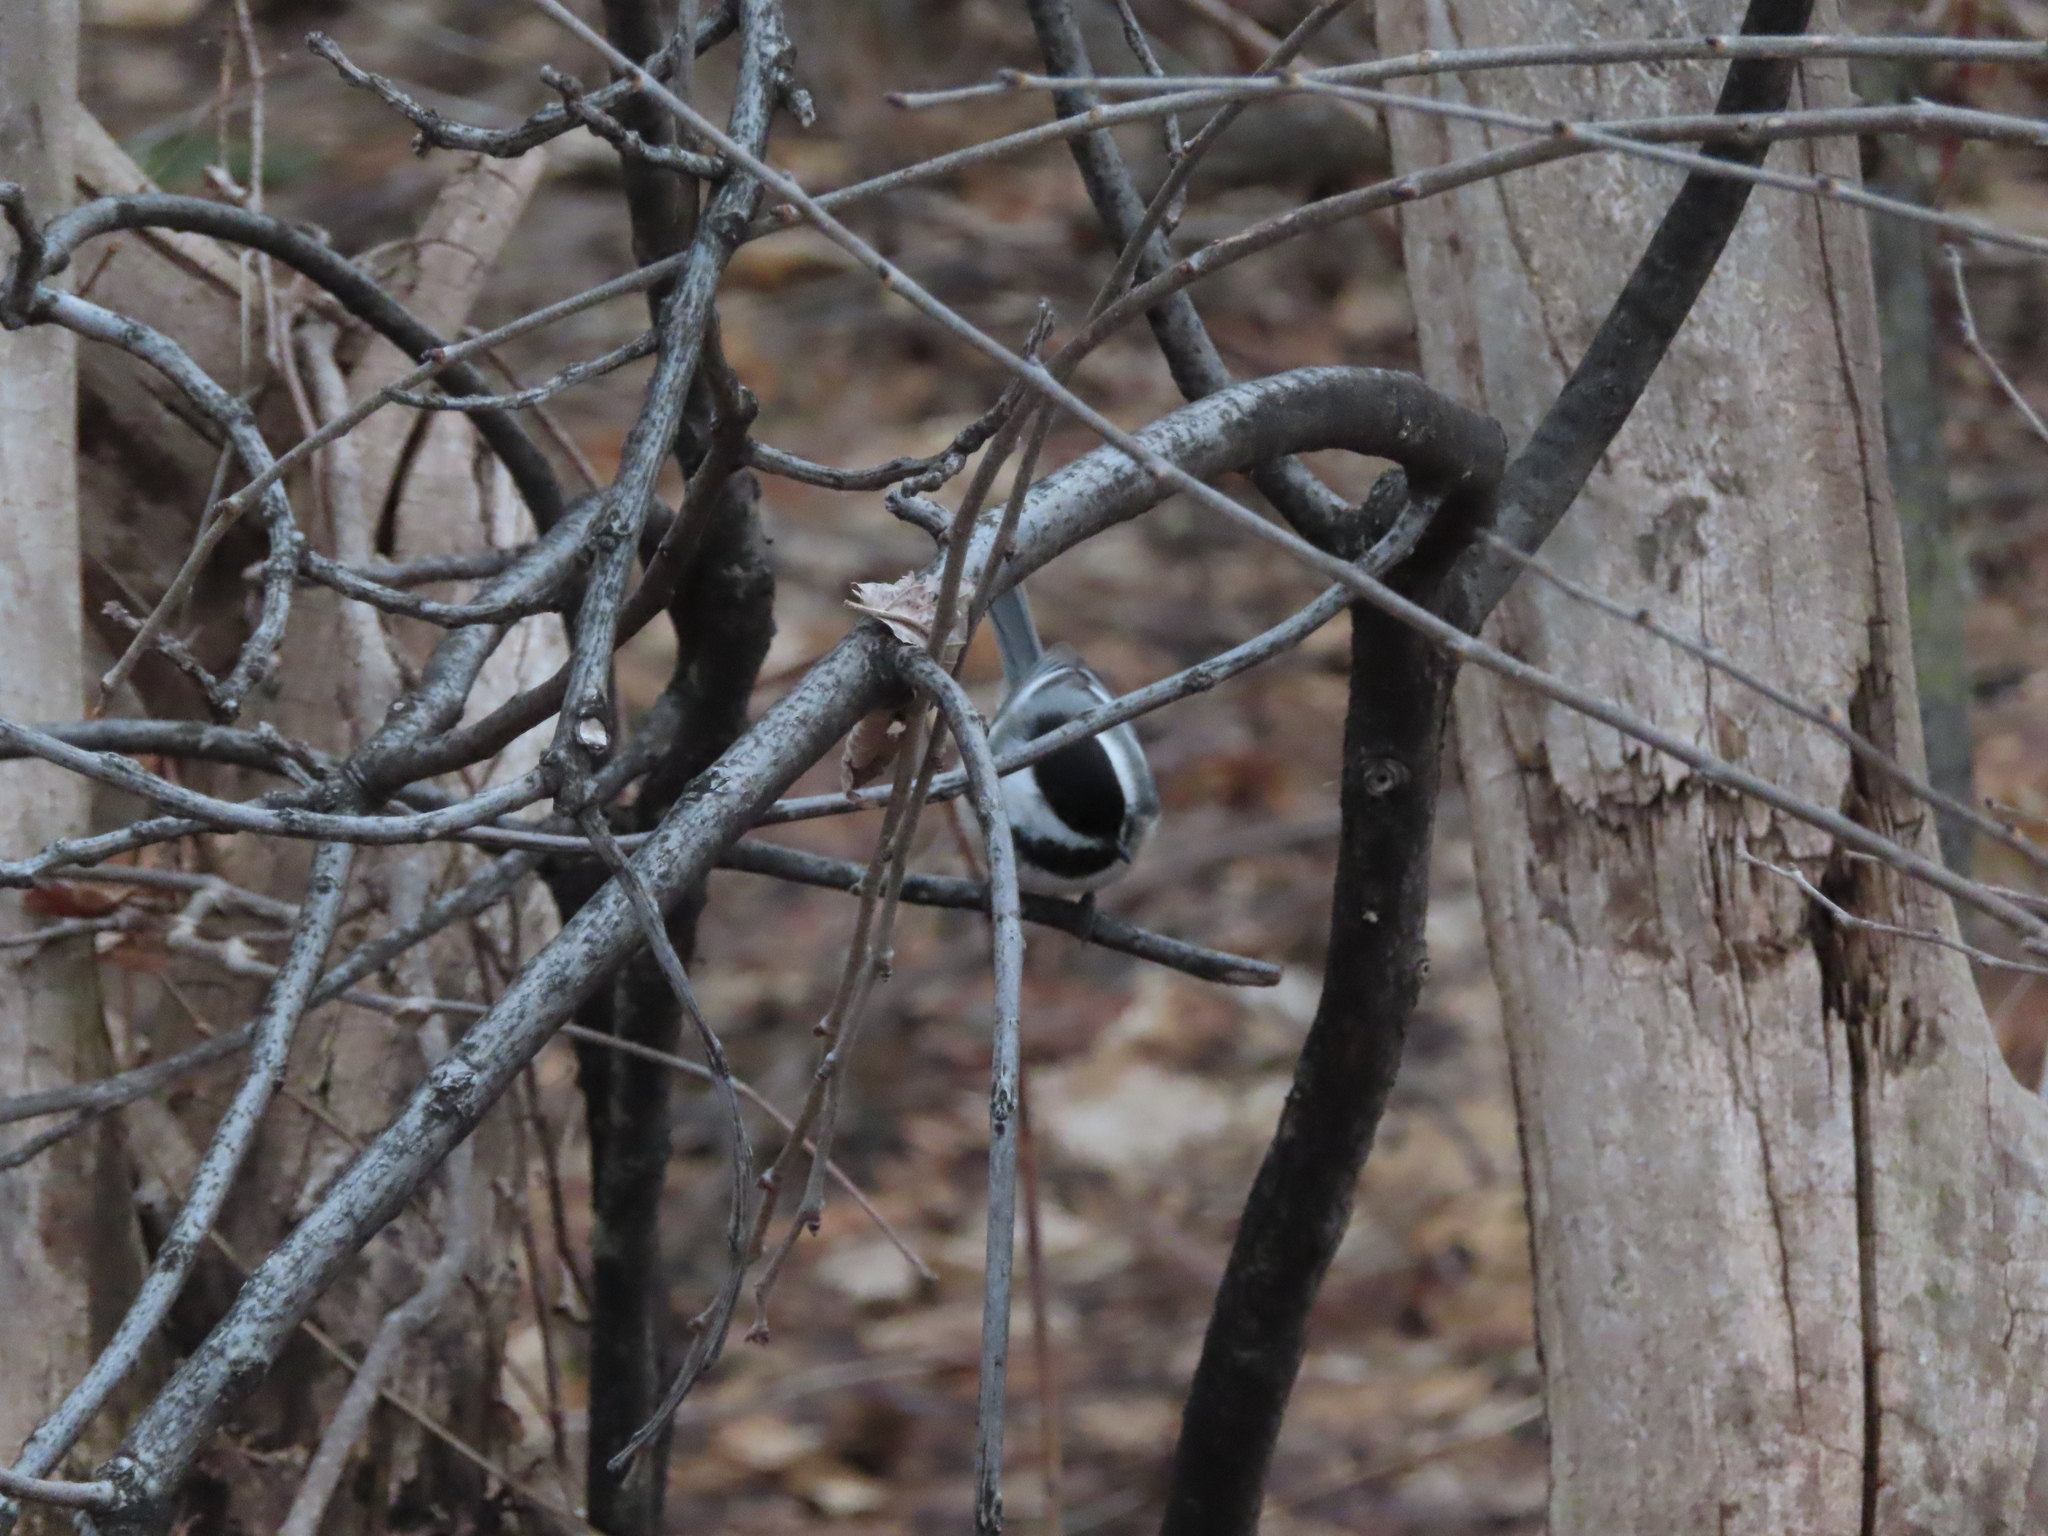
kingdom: Animalia
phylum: Chordata
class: Aves
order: Passeriformes
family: Paridae
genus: Poecile
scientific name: Poecile atricapillus
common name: Black-capped chickadee
